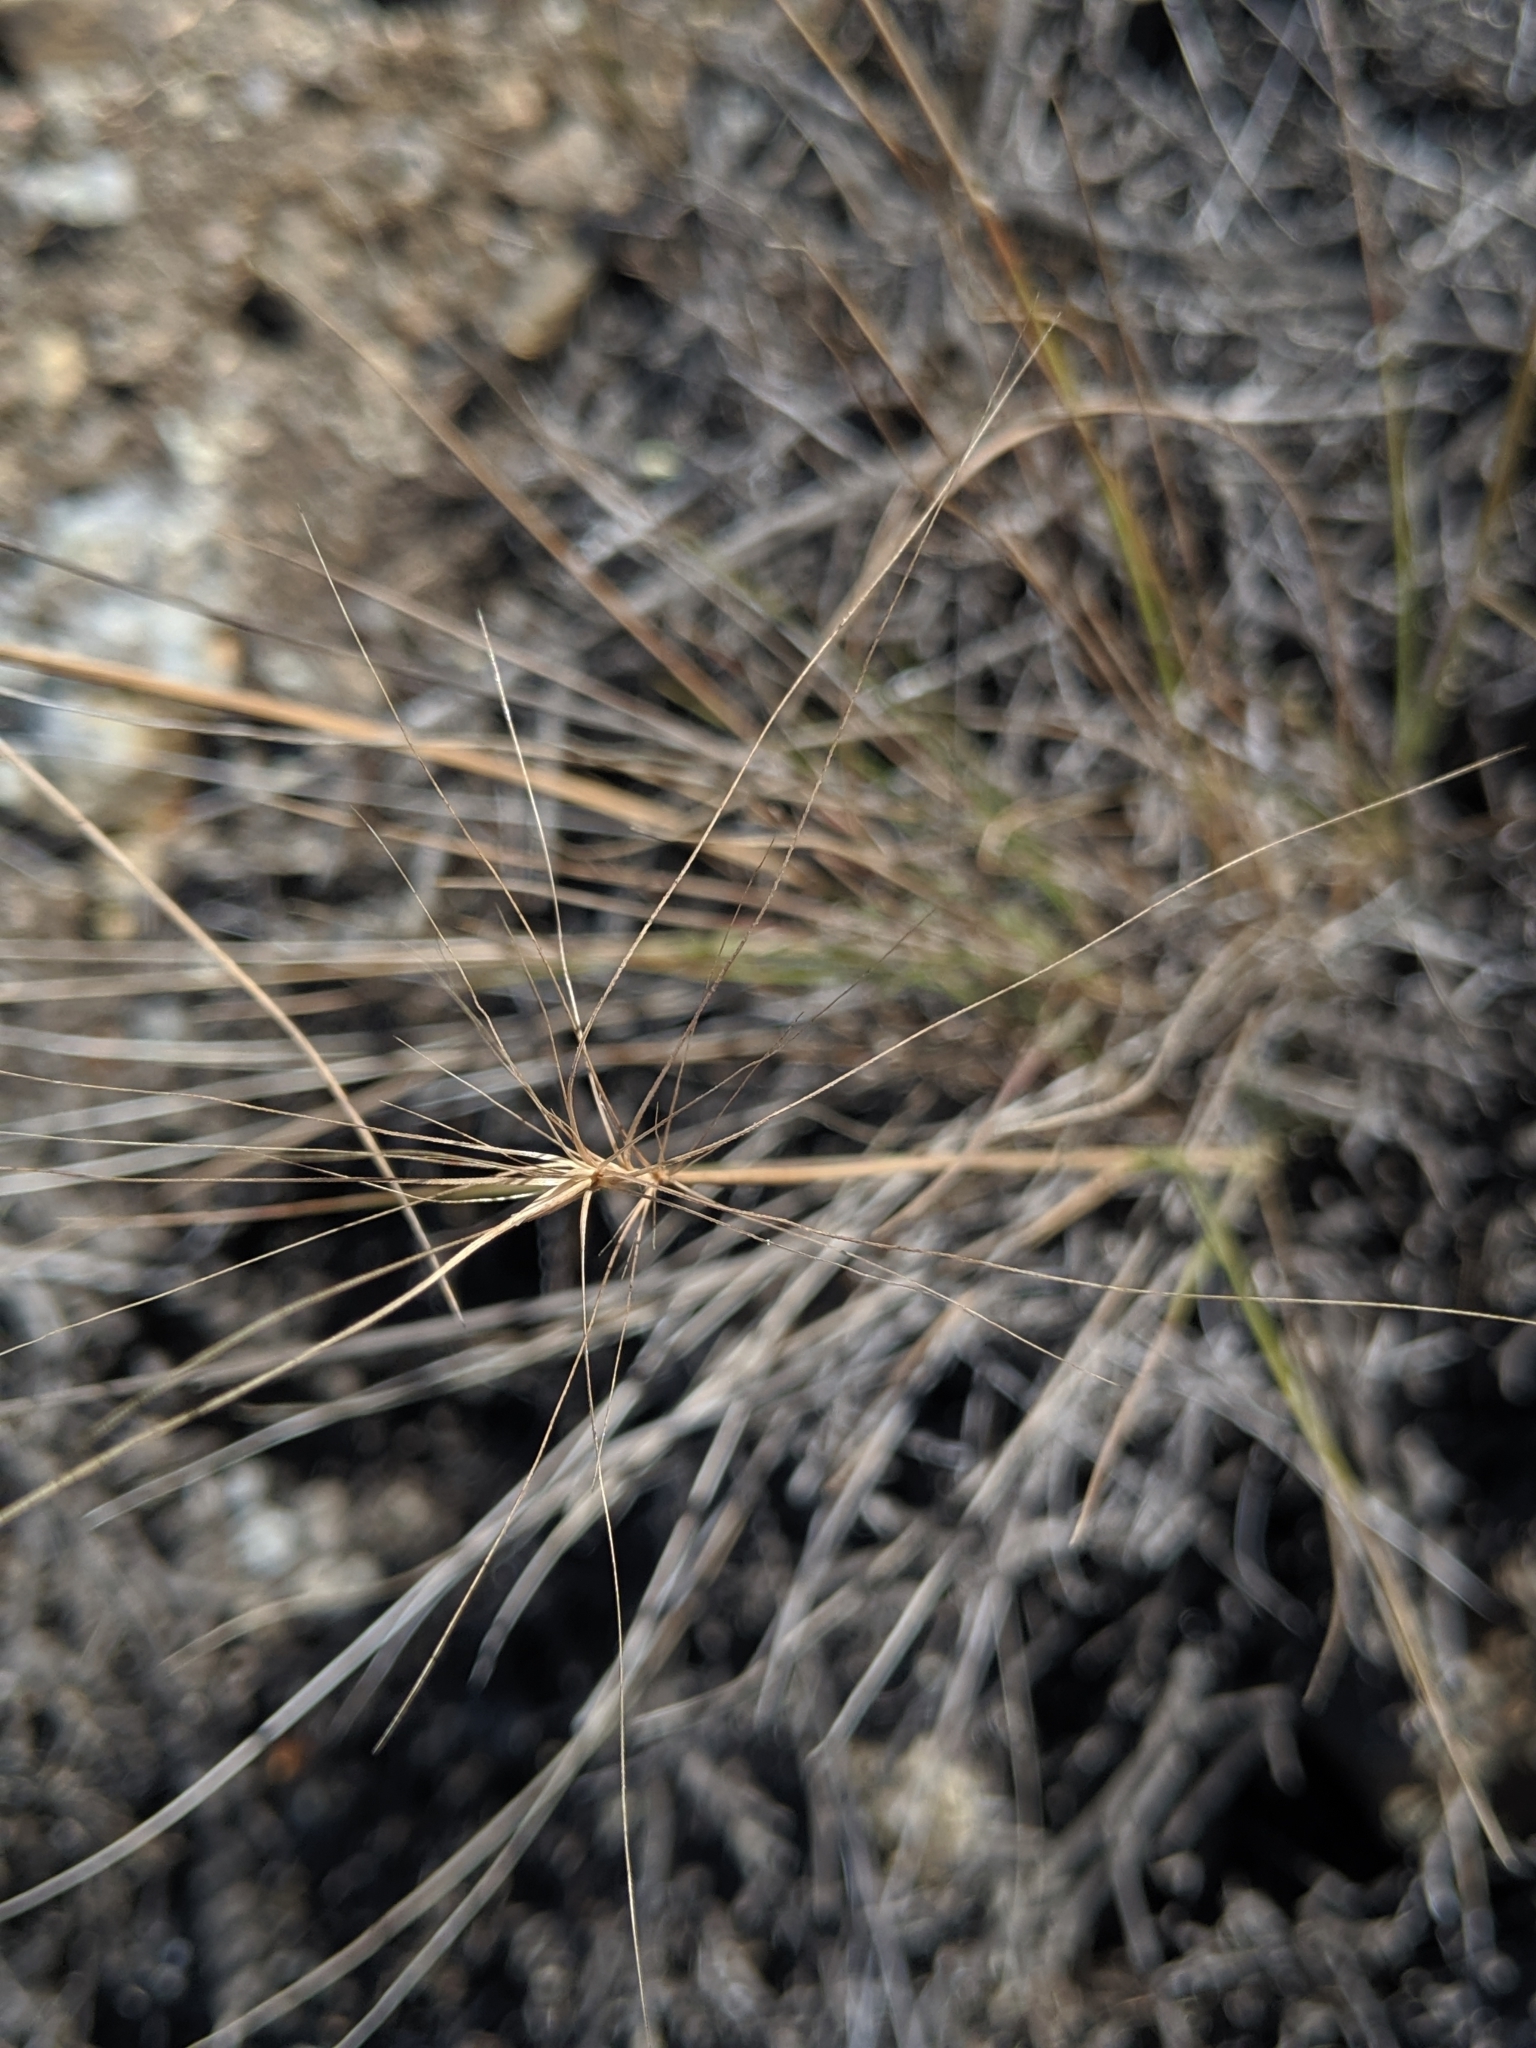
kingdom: Plantae
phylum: Tracheophyta
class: Liliopsida
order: Poales
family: Poaceae
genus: Elymus
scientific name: Elymus elymoides
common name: Bottlebrush squirreltail
